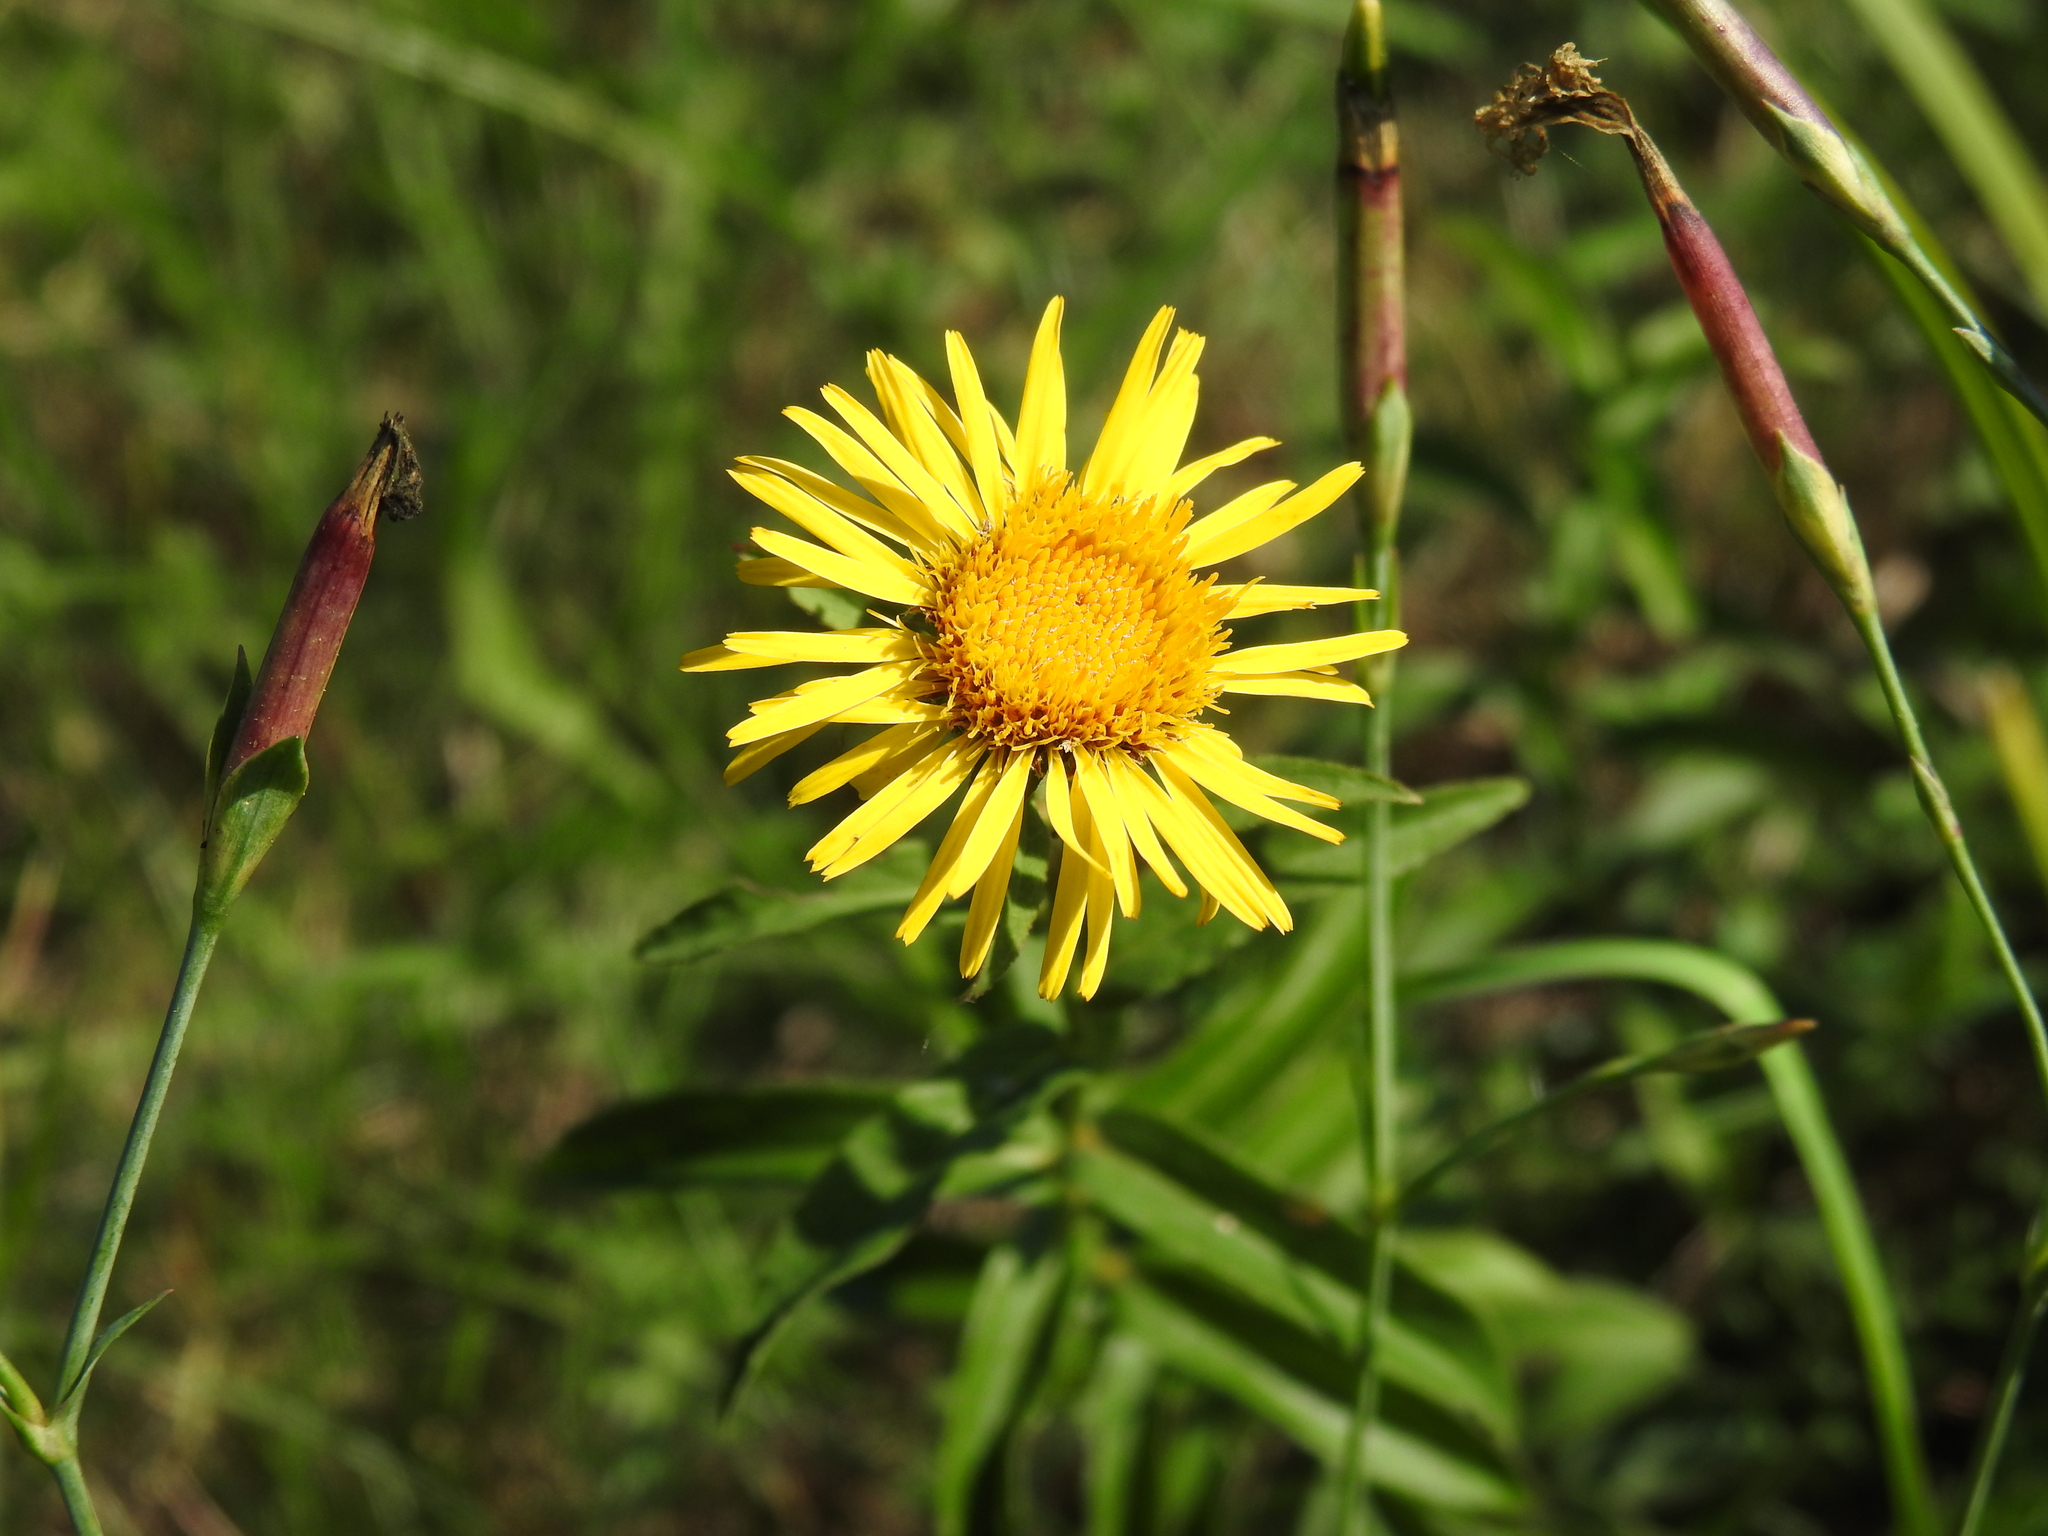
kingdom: Plantae
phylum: Tracheophyta
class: Magnoliopsida
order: Asterales
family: Asteraceae
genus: Pentanema
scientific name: Pentanema salicinum
